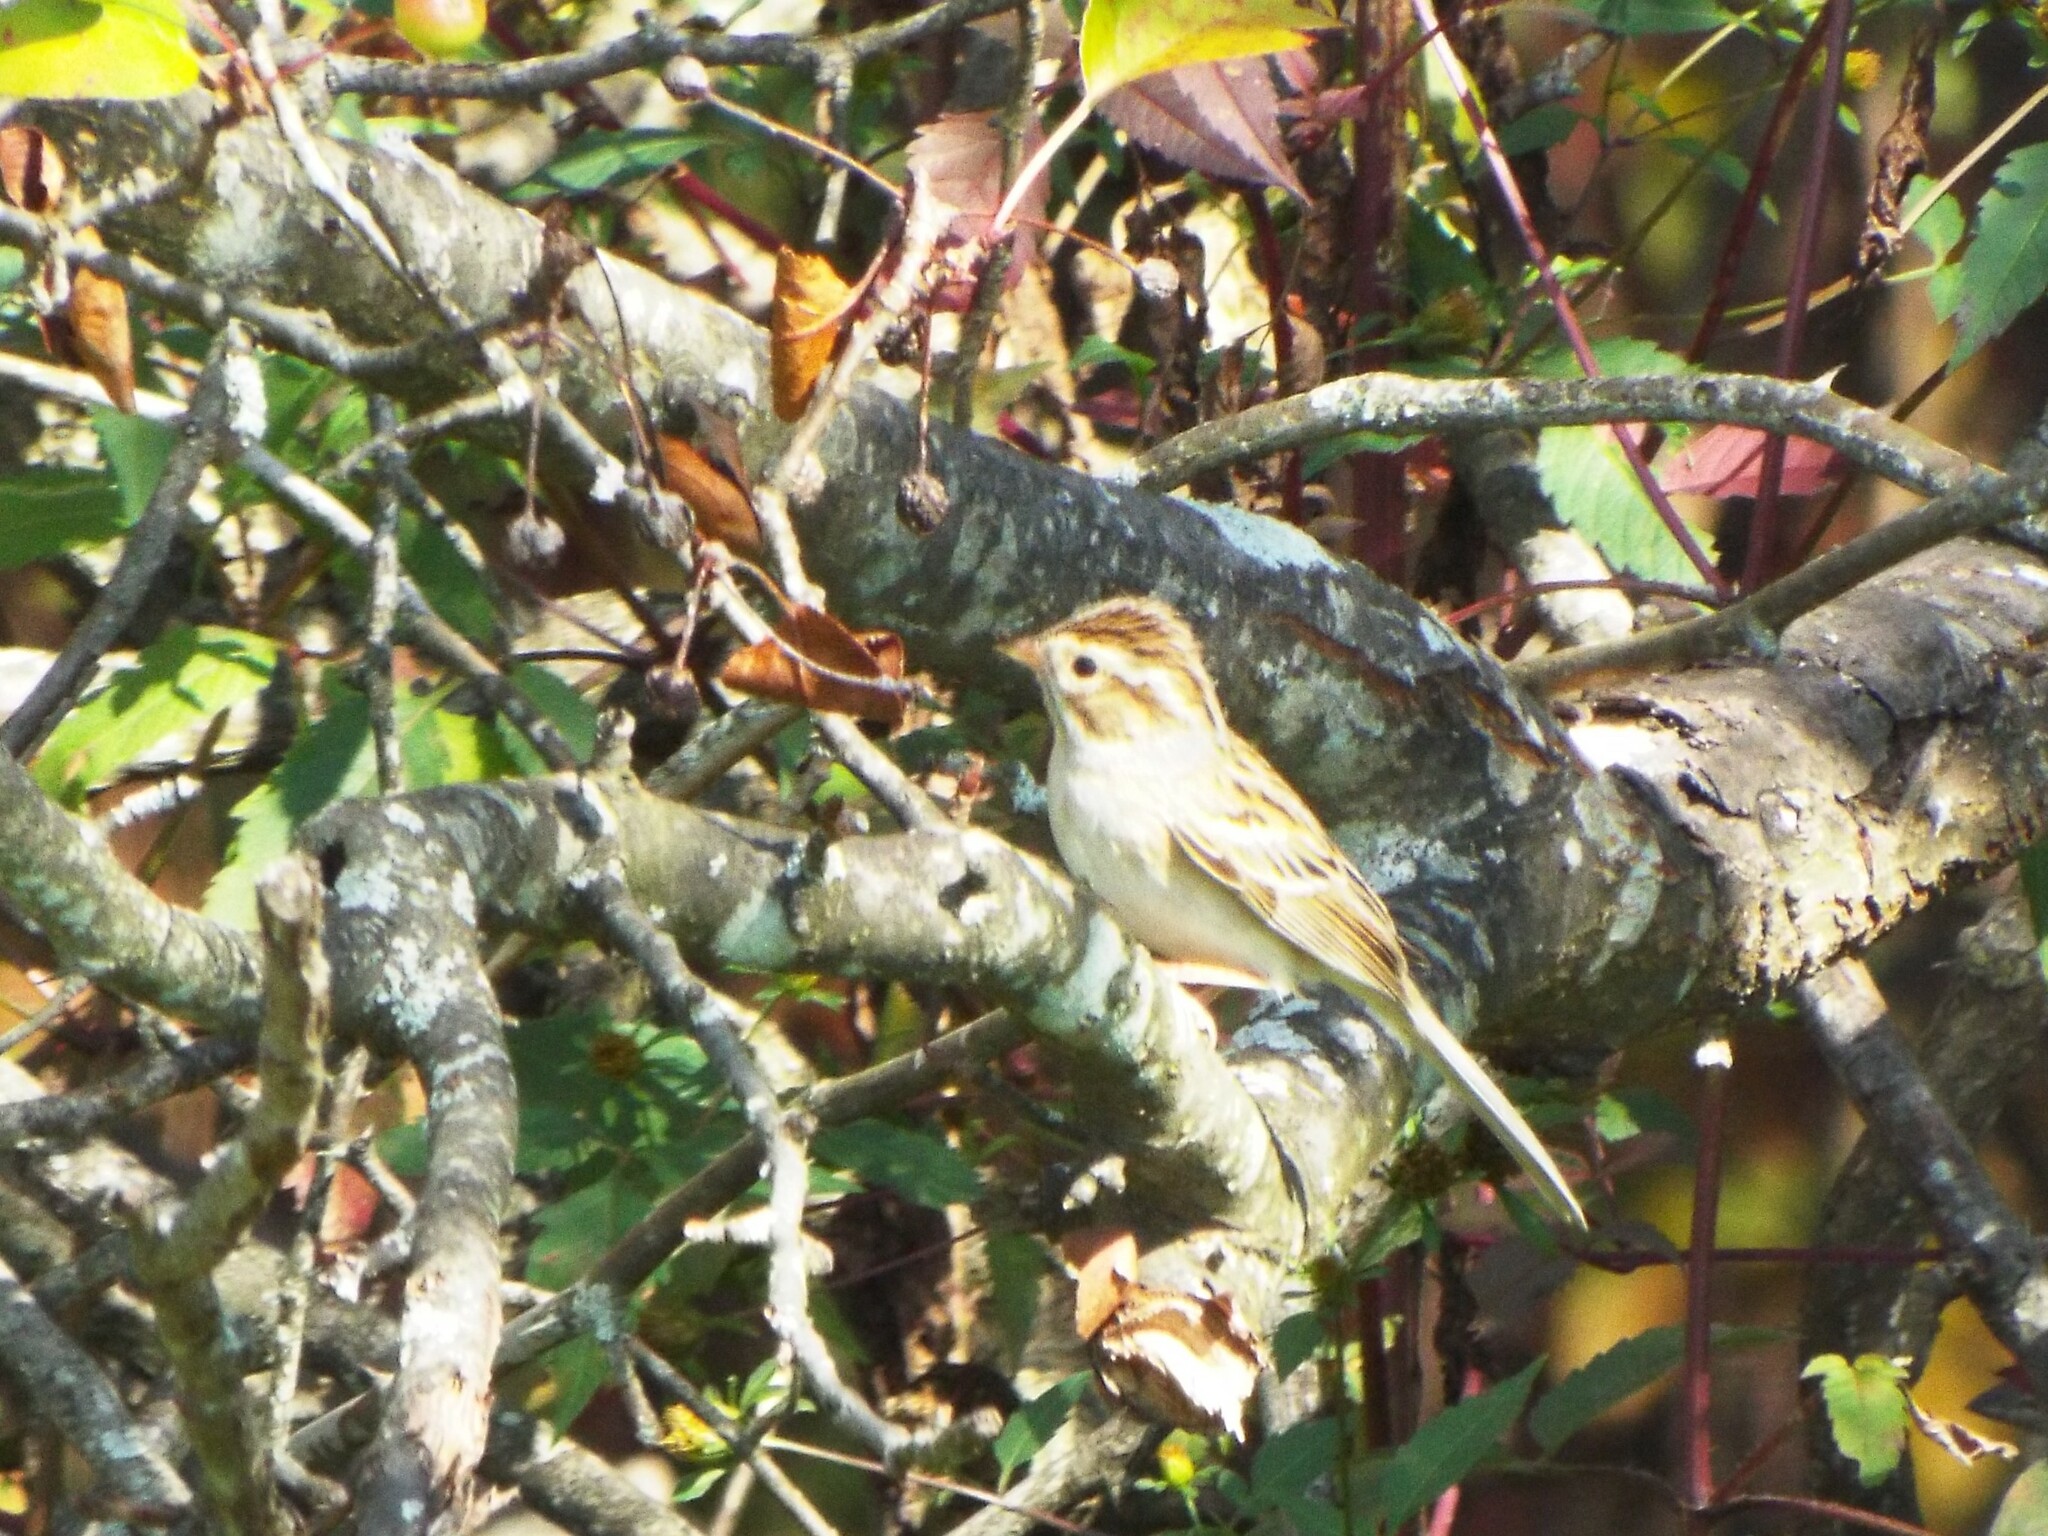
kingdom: Animalia
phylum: Chordata
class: Aves
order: Passeriformes
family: Passerellidae
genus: Spizella
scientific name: Spizella pallida
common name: Clay-colored sparrow
